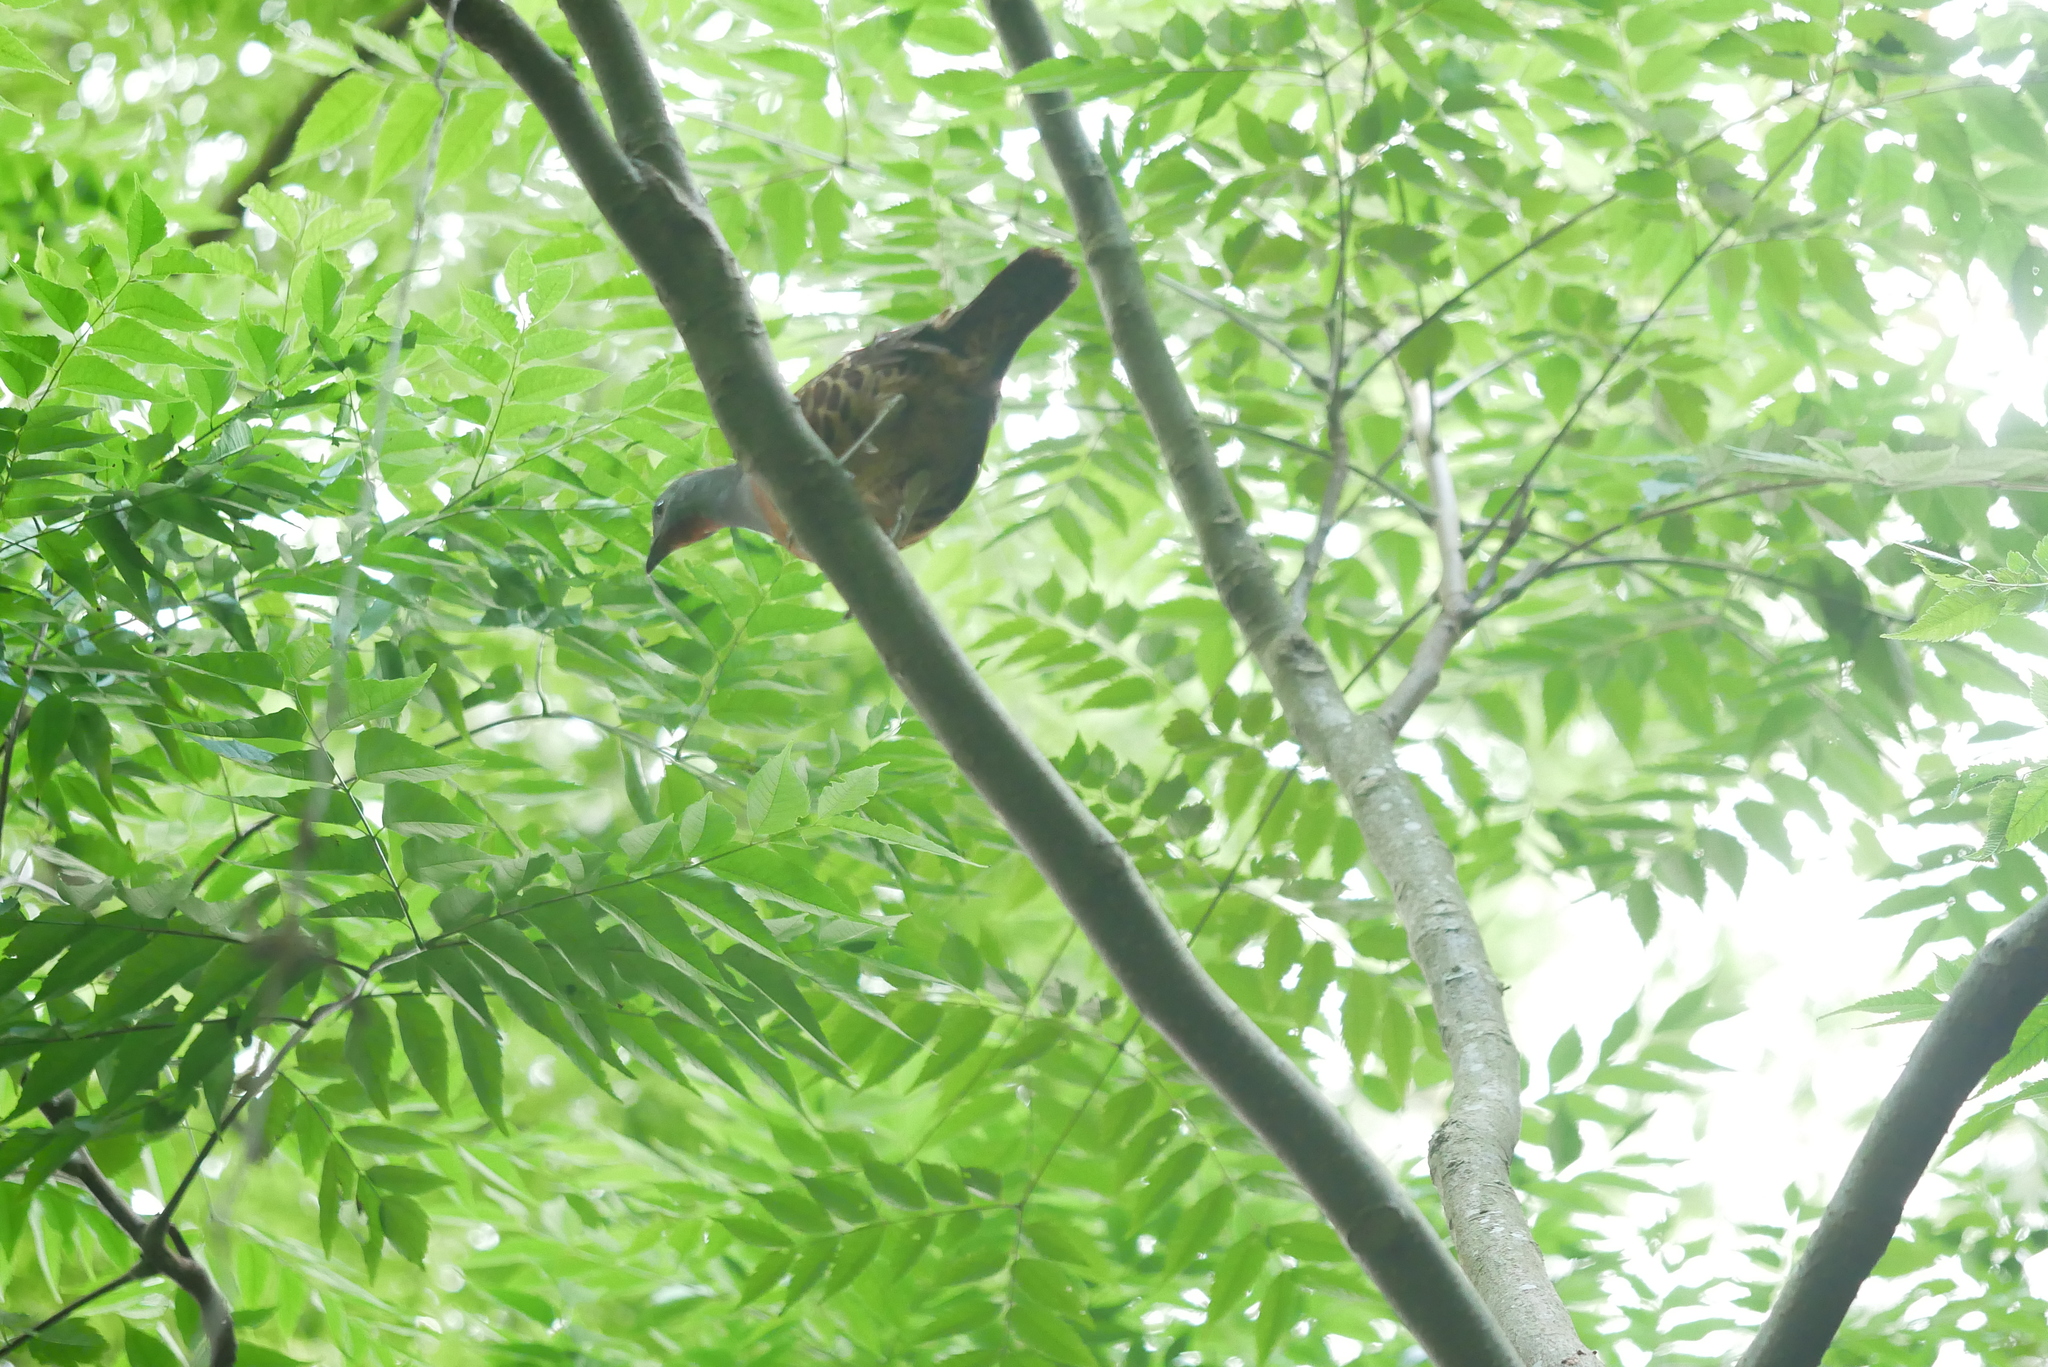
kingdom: Animalia
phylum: Chordata
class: Aves
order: Galliformes
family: Phasianidae
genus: Bambusicola
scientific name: Bambusicola sonorivox
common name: Taiwan bamboo-partridge
